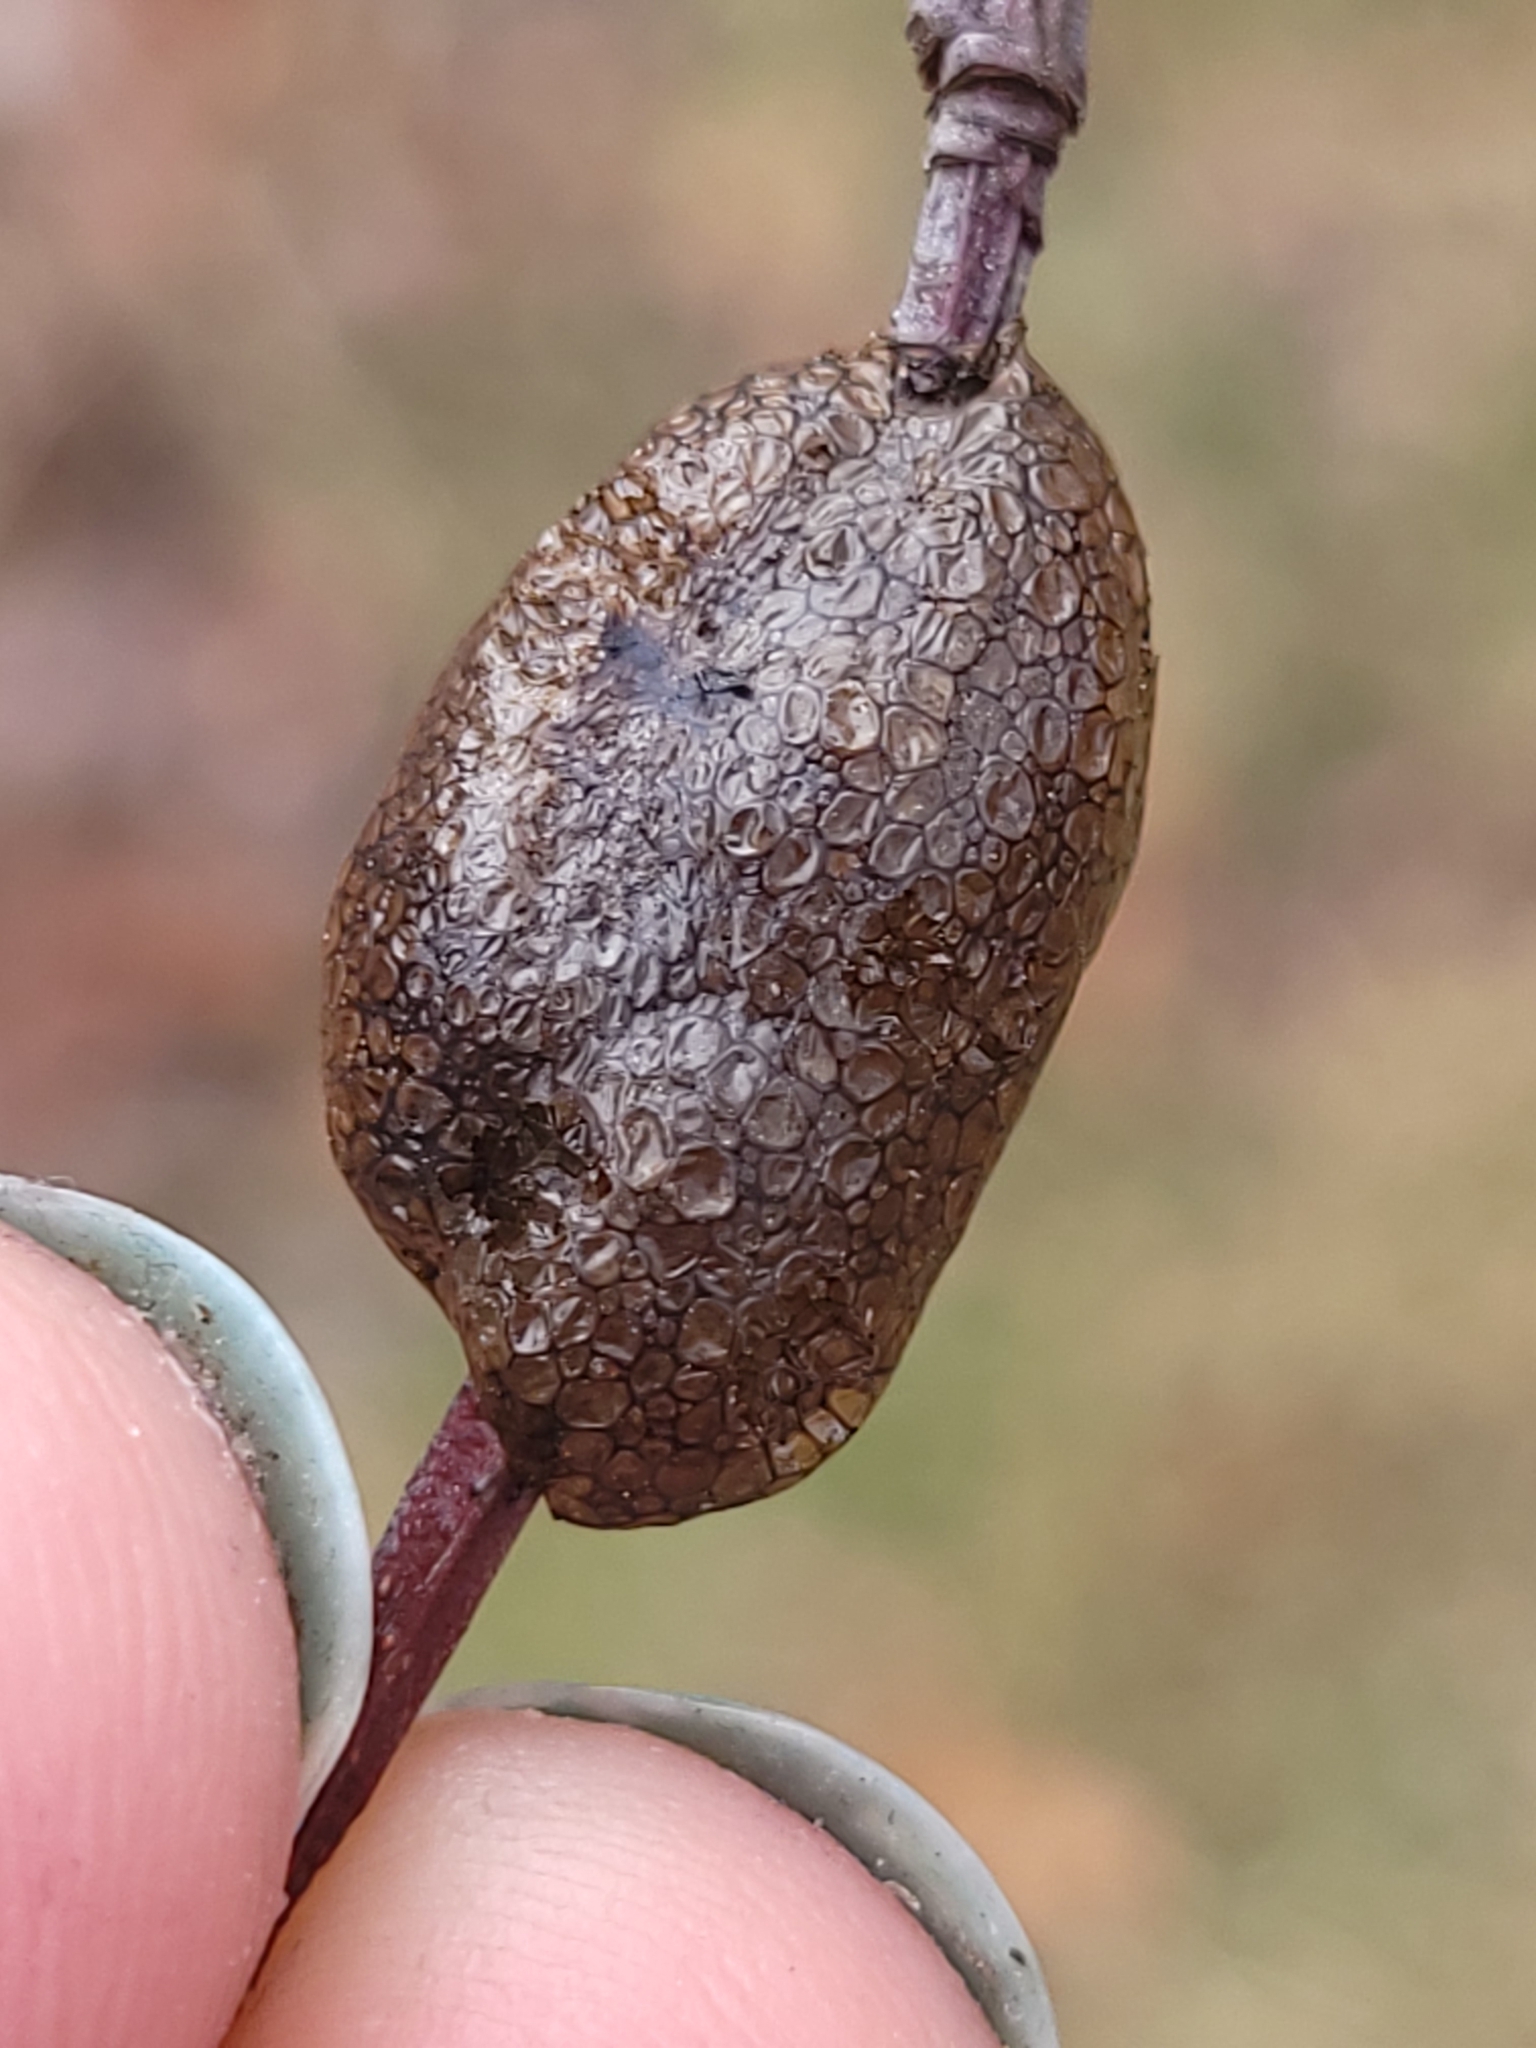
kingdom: Animalia
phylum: Arthropoda
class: Insecta
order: Lepidoptera
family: Lasiocampidae
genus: Malacosoma
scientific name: Malacosoma americana
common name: Eastern tent caterpillar moth
